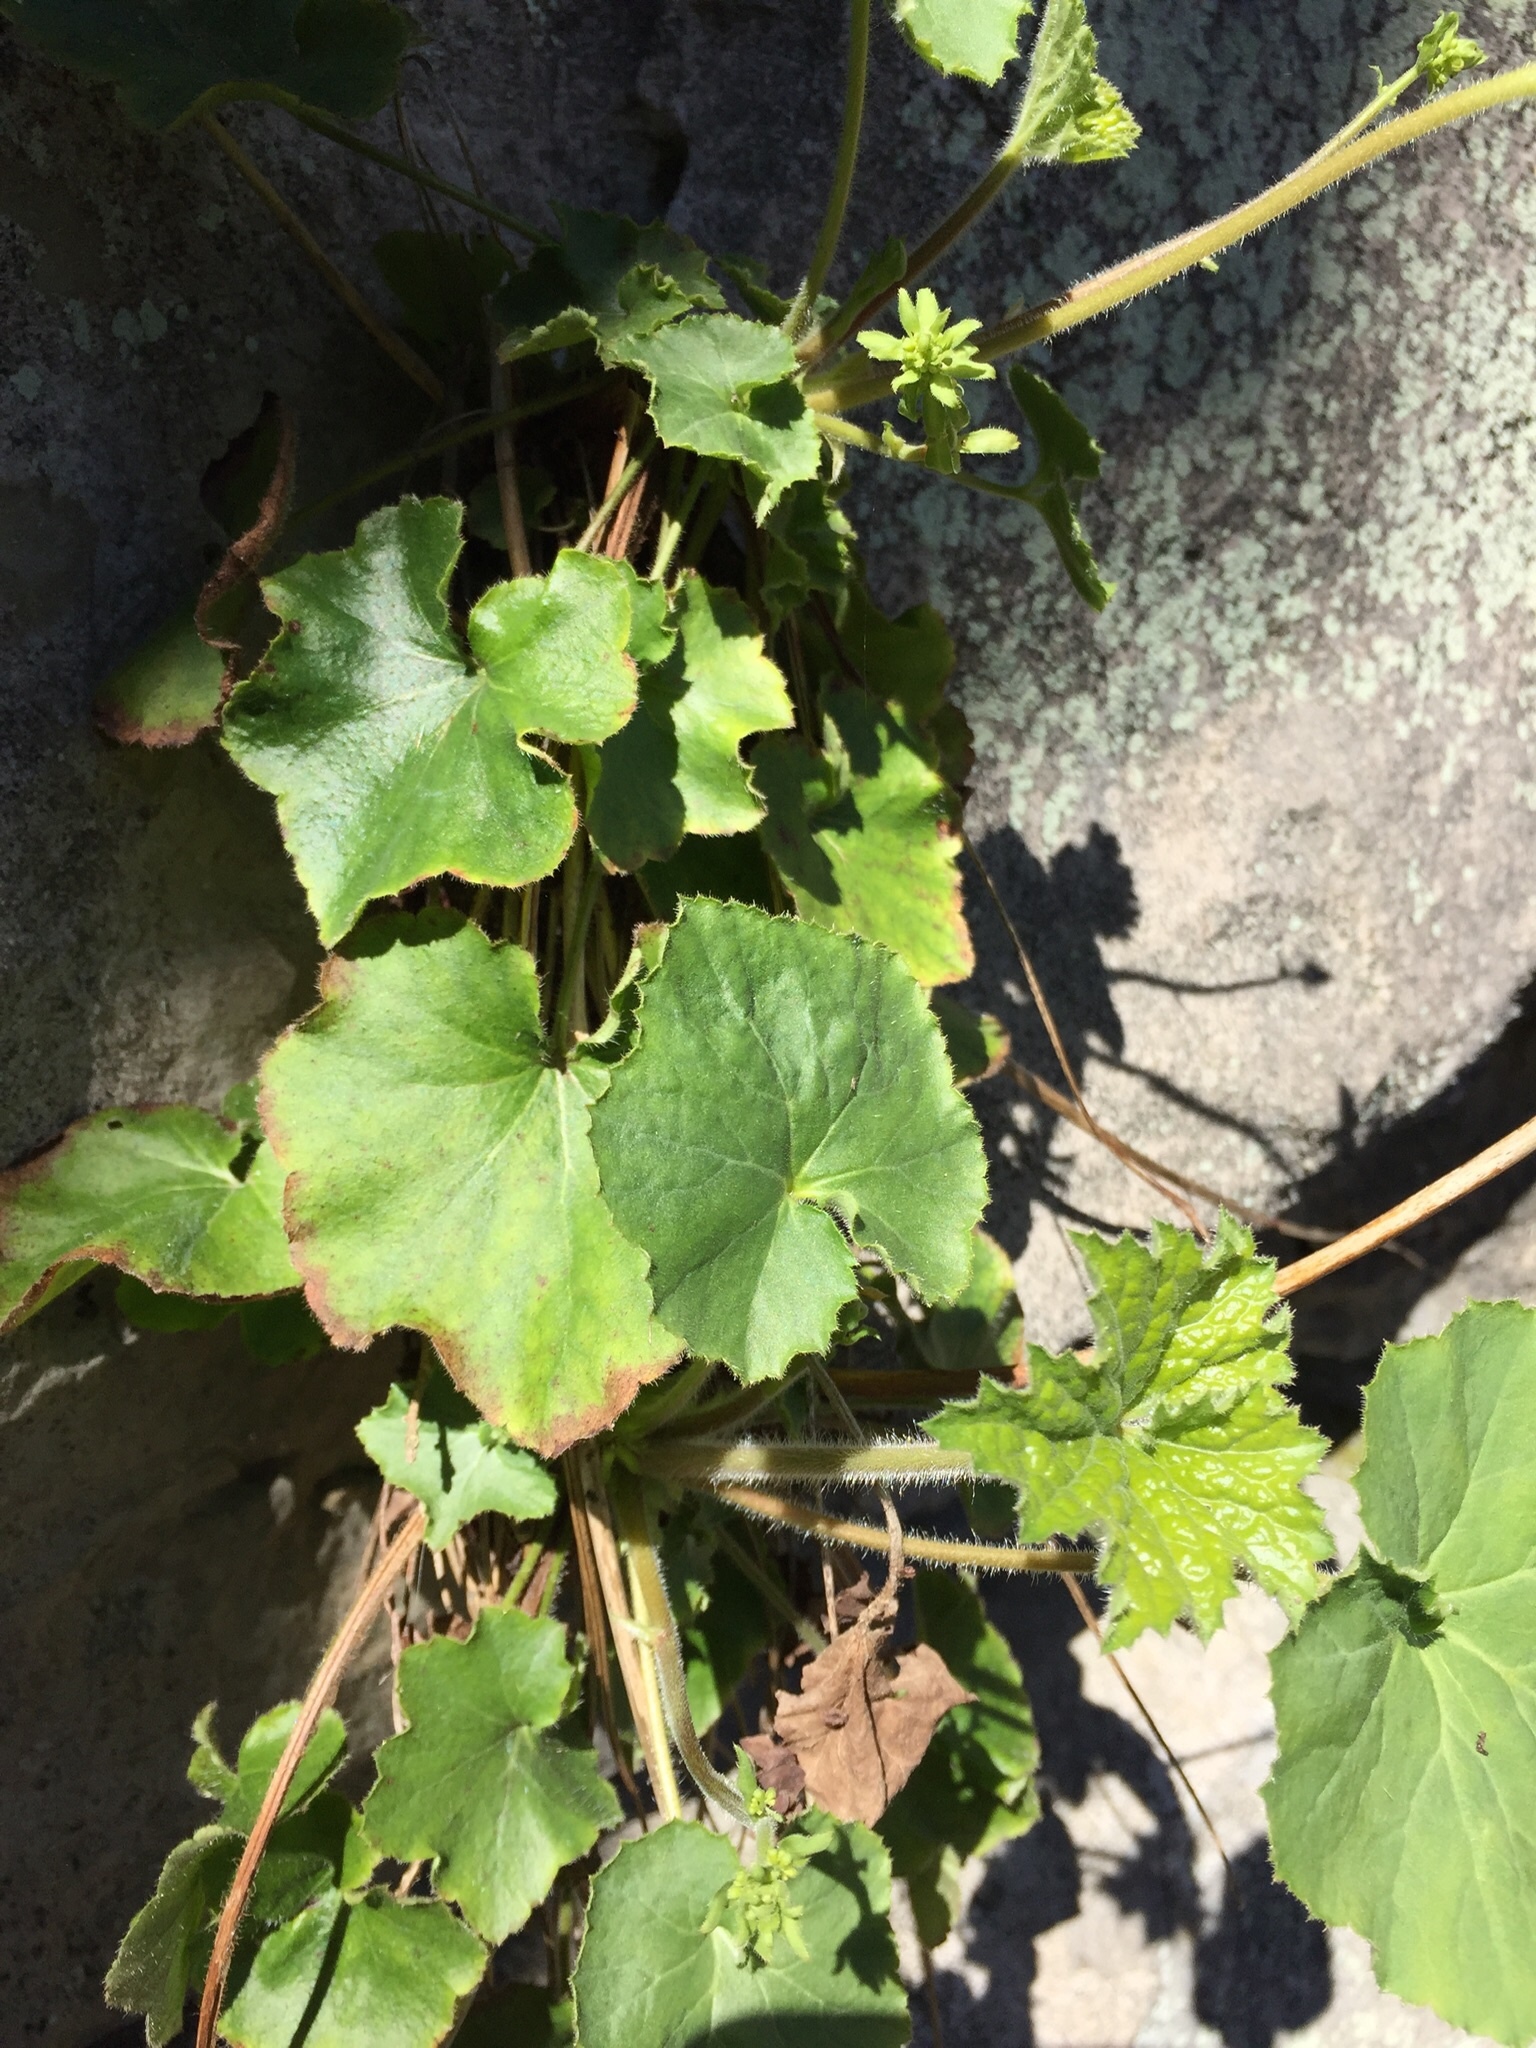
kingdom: Plantae
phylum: Tracheophyta
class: Magnoliopsida
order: Saxifragales
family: Saxifragaceae
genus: Heuchera
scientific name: Heuchera villosa
